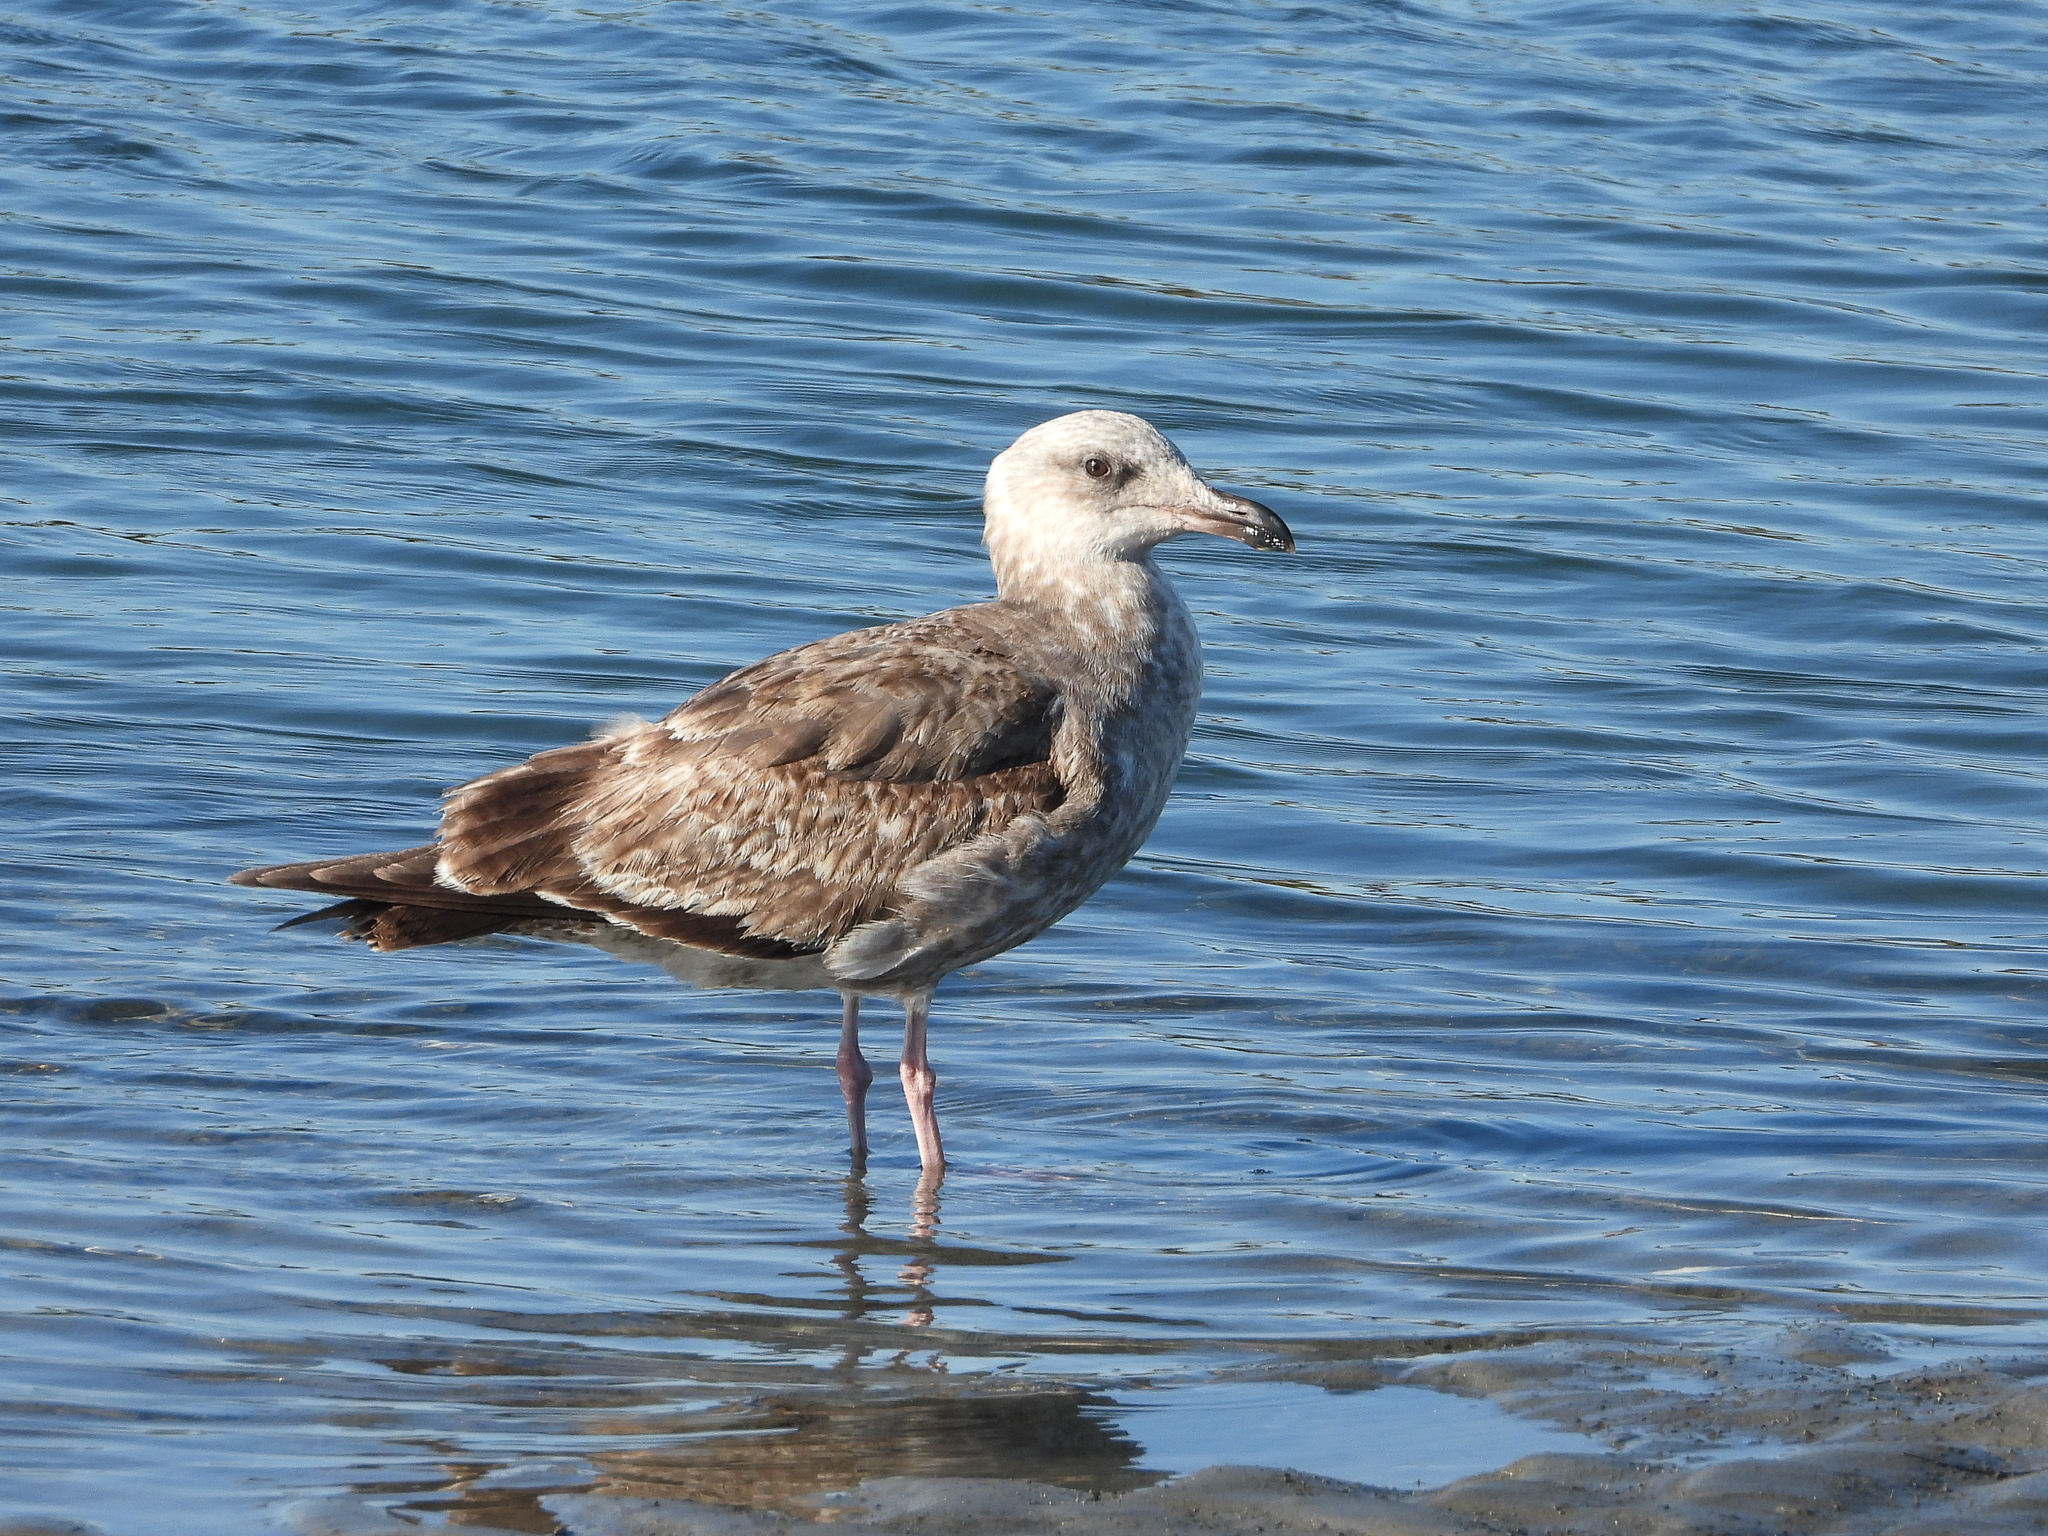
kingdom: Animalia
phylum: Chordata
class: Aves
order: Charadriiformes
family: Laridae
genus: Larus
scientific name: Larus occidentalis
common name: Western gull
